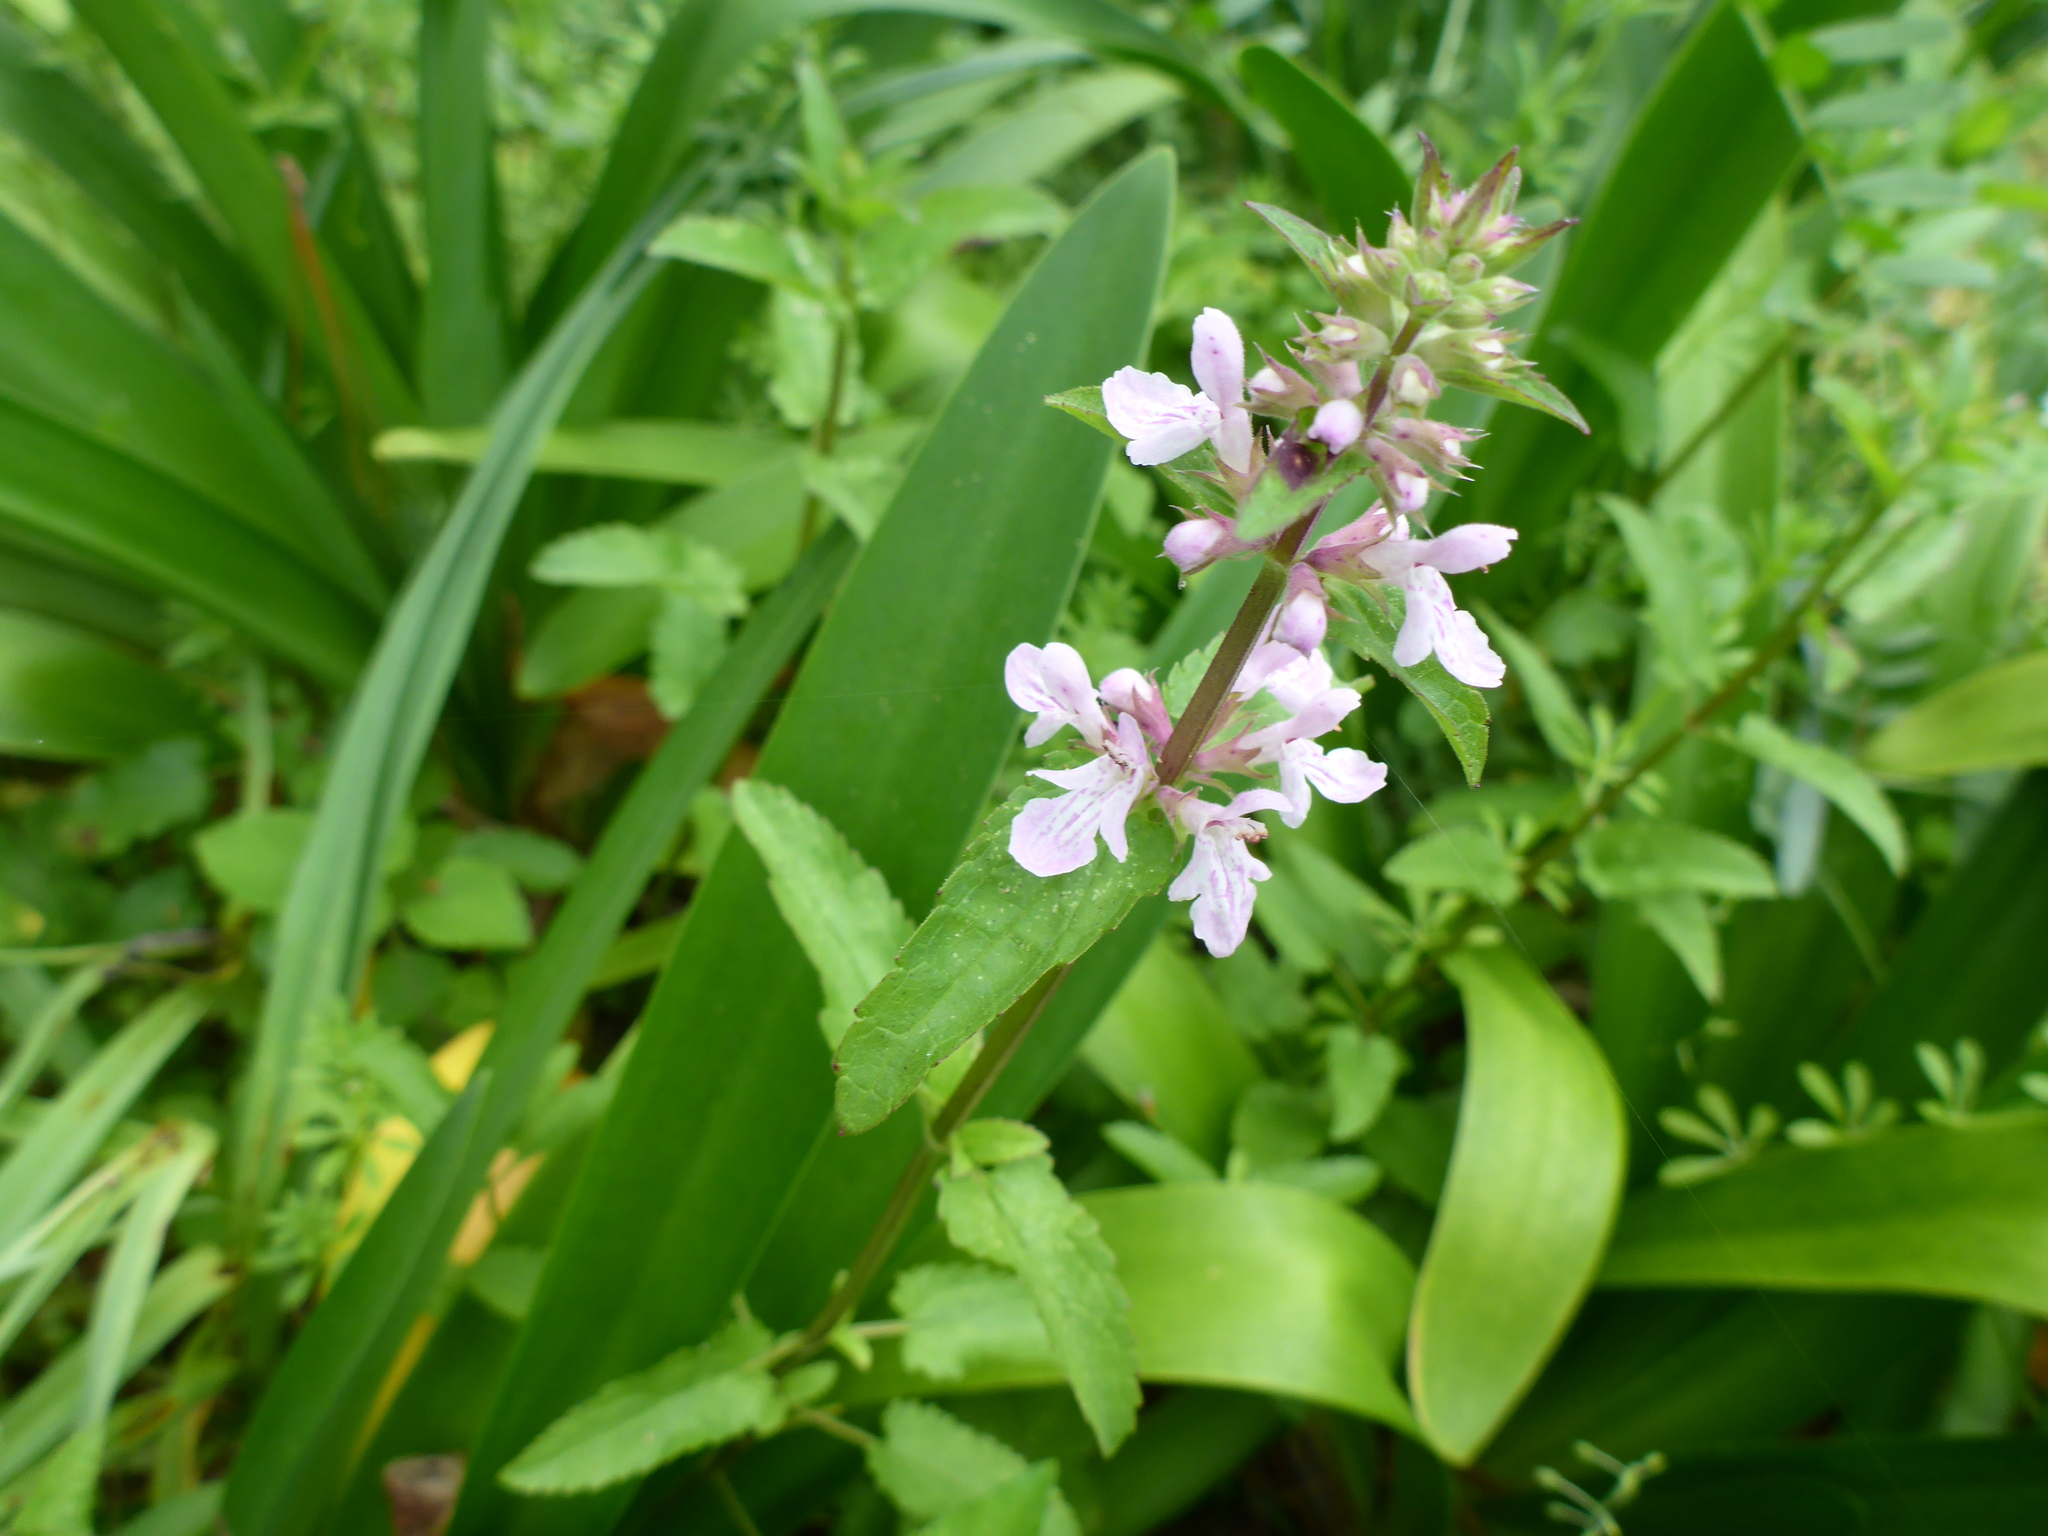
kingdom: Plantae
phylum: Tracheophyta
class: Magnoliopsida
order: Lamiales
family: Lamiaceae
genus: Stachys
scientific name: Stachys floridana
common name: Florida betony
